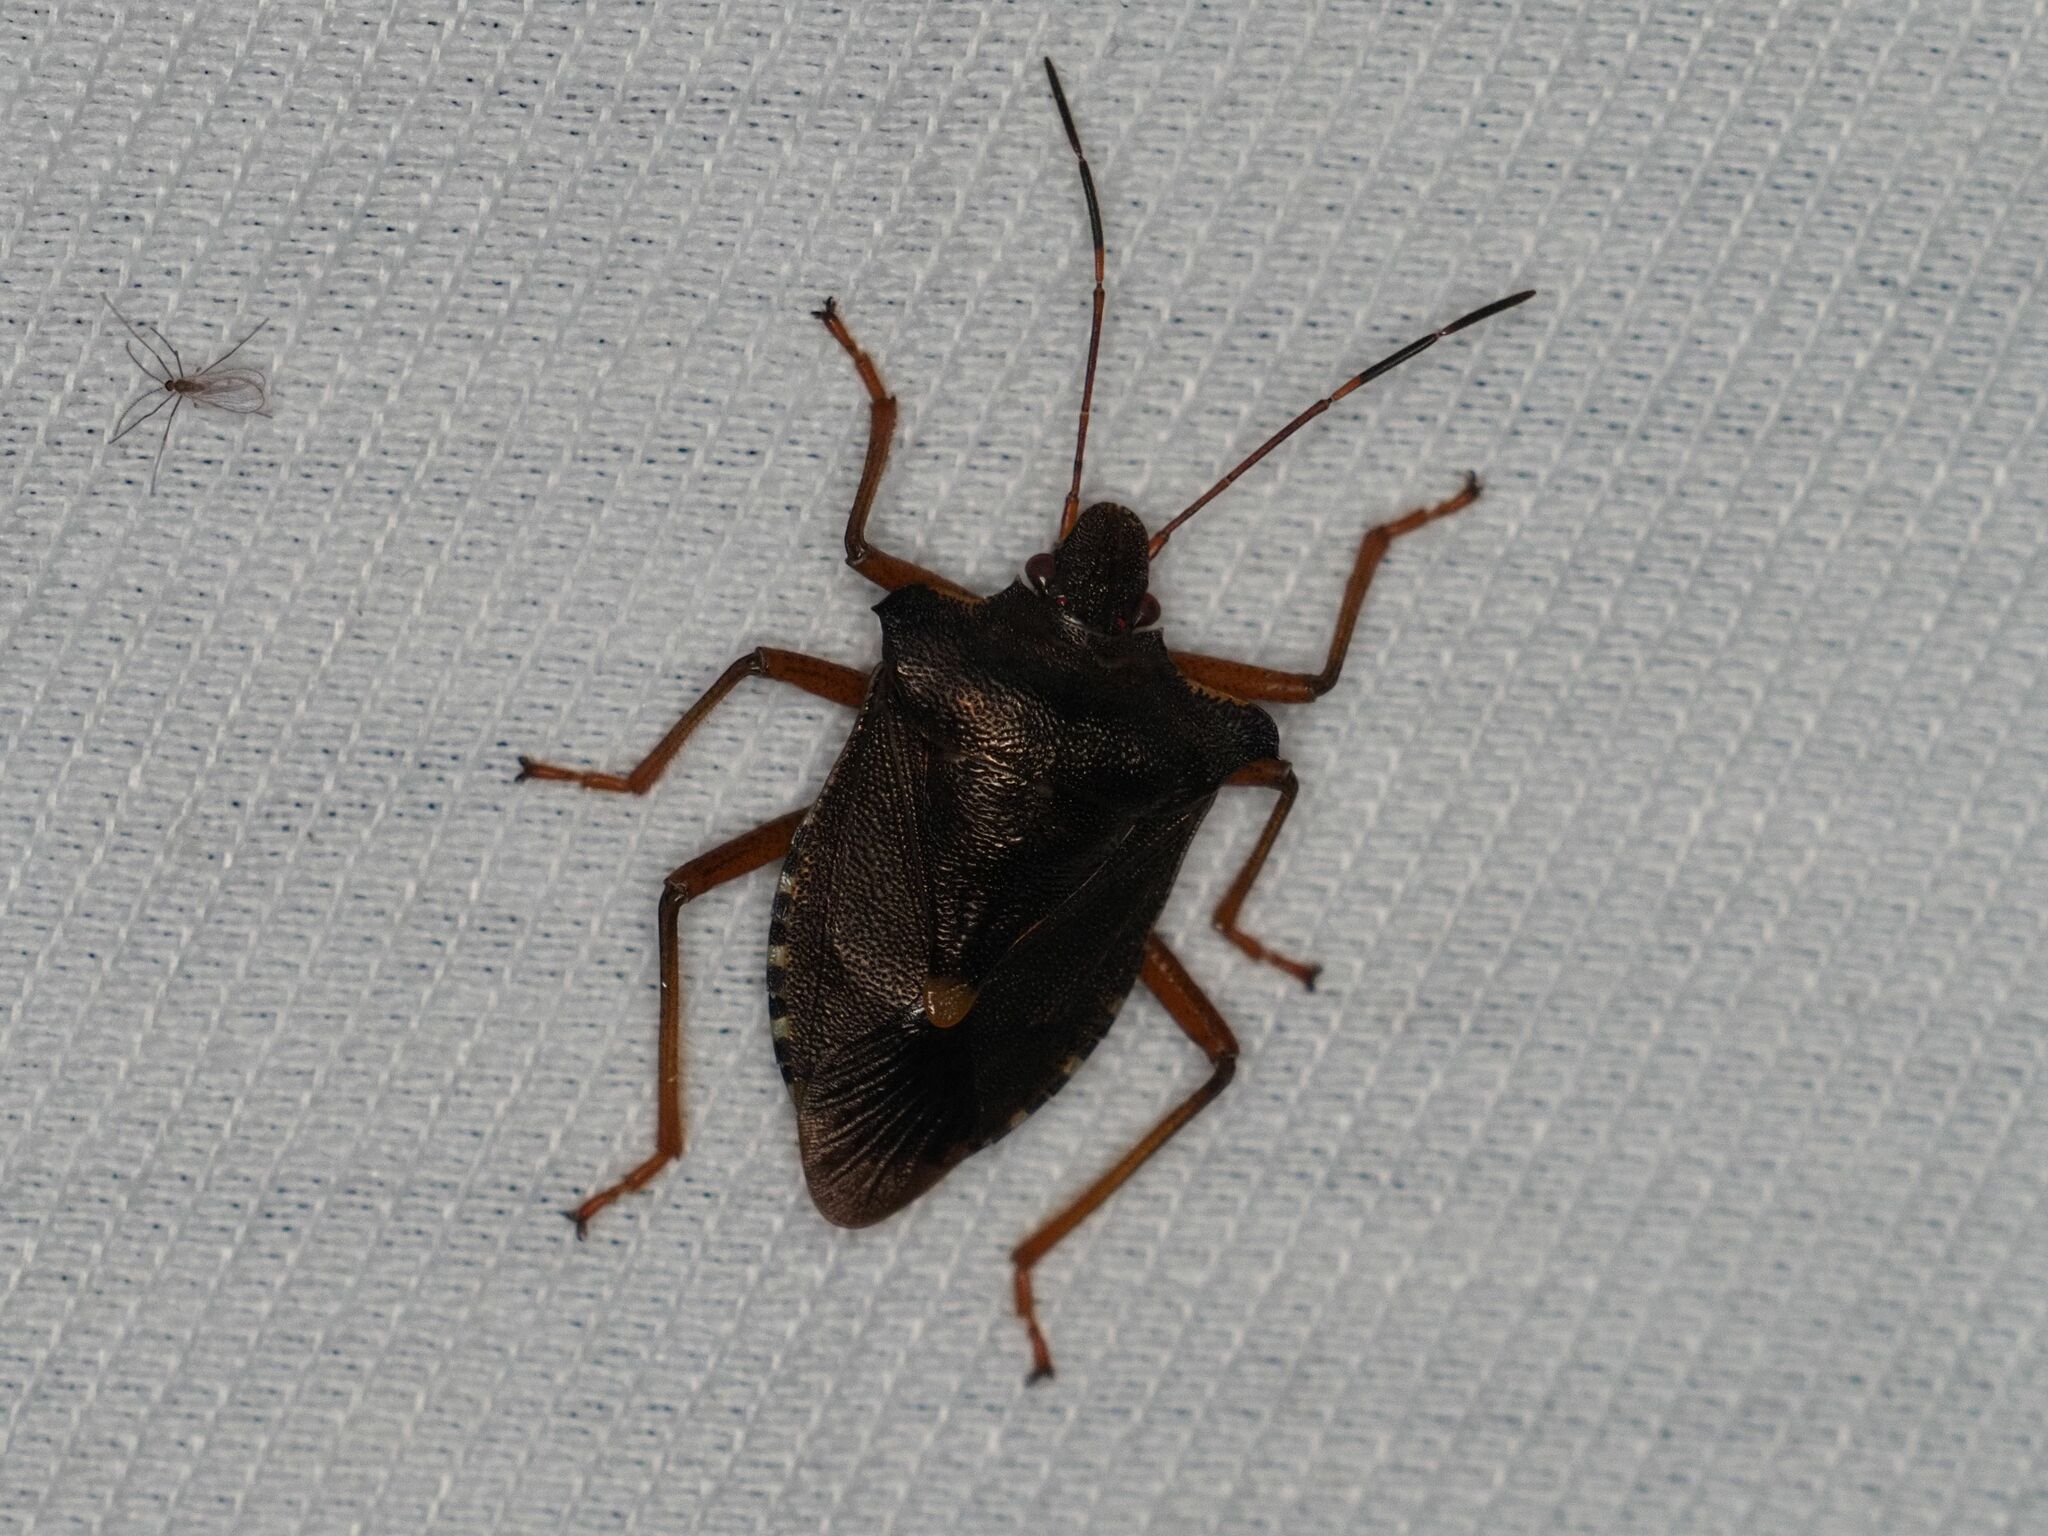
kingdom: Animalia
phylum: Arthropoda
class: Insecta
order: Hemiptera
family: Pentatomidae
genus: Pentatoma
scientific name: Pentatoma rufipes
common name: Forest bug
